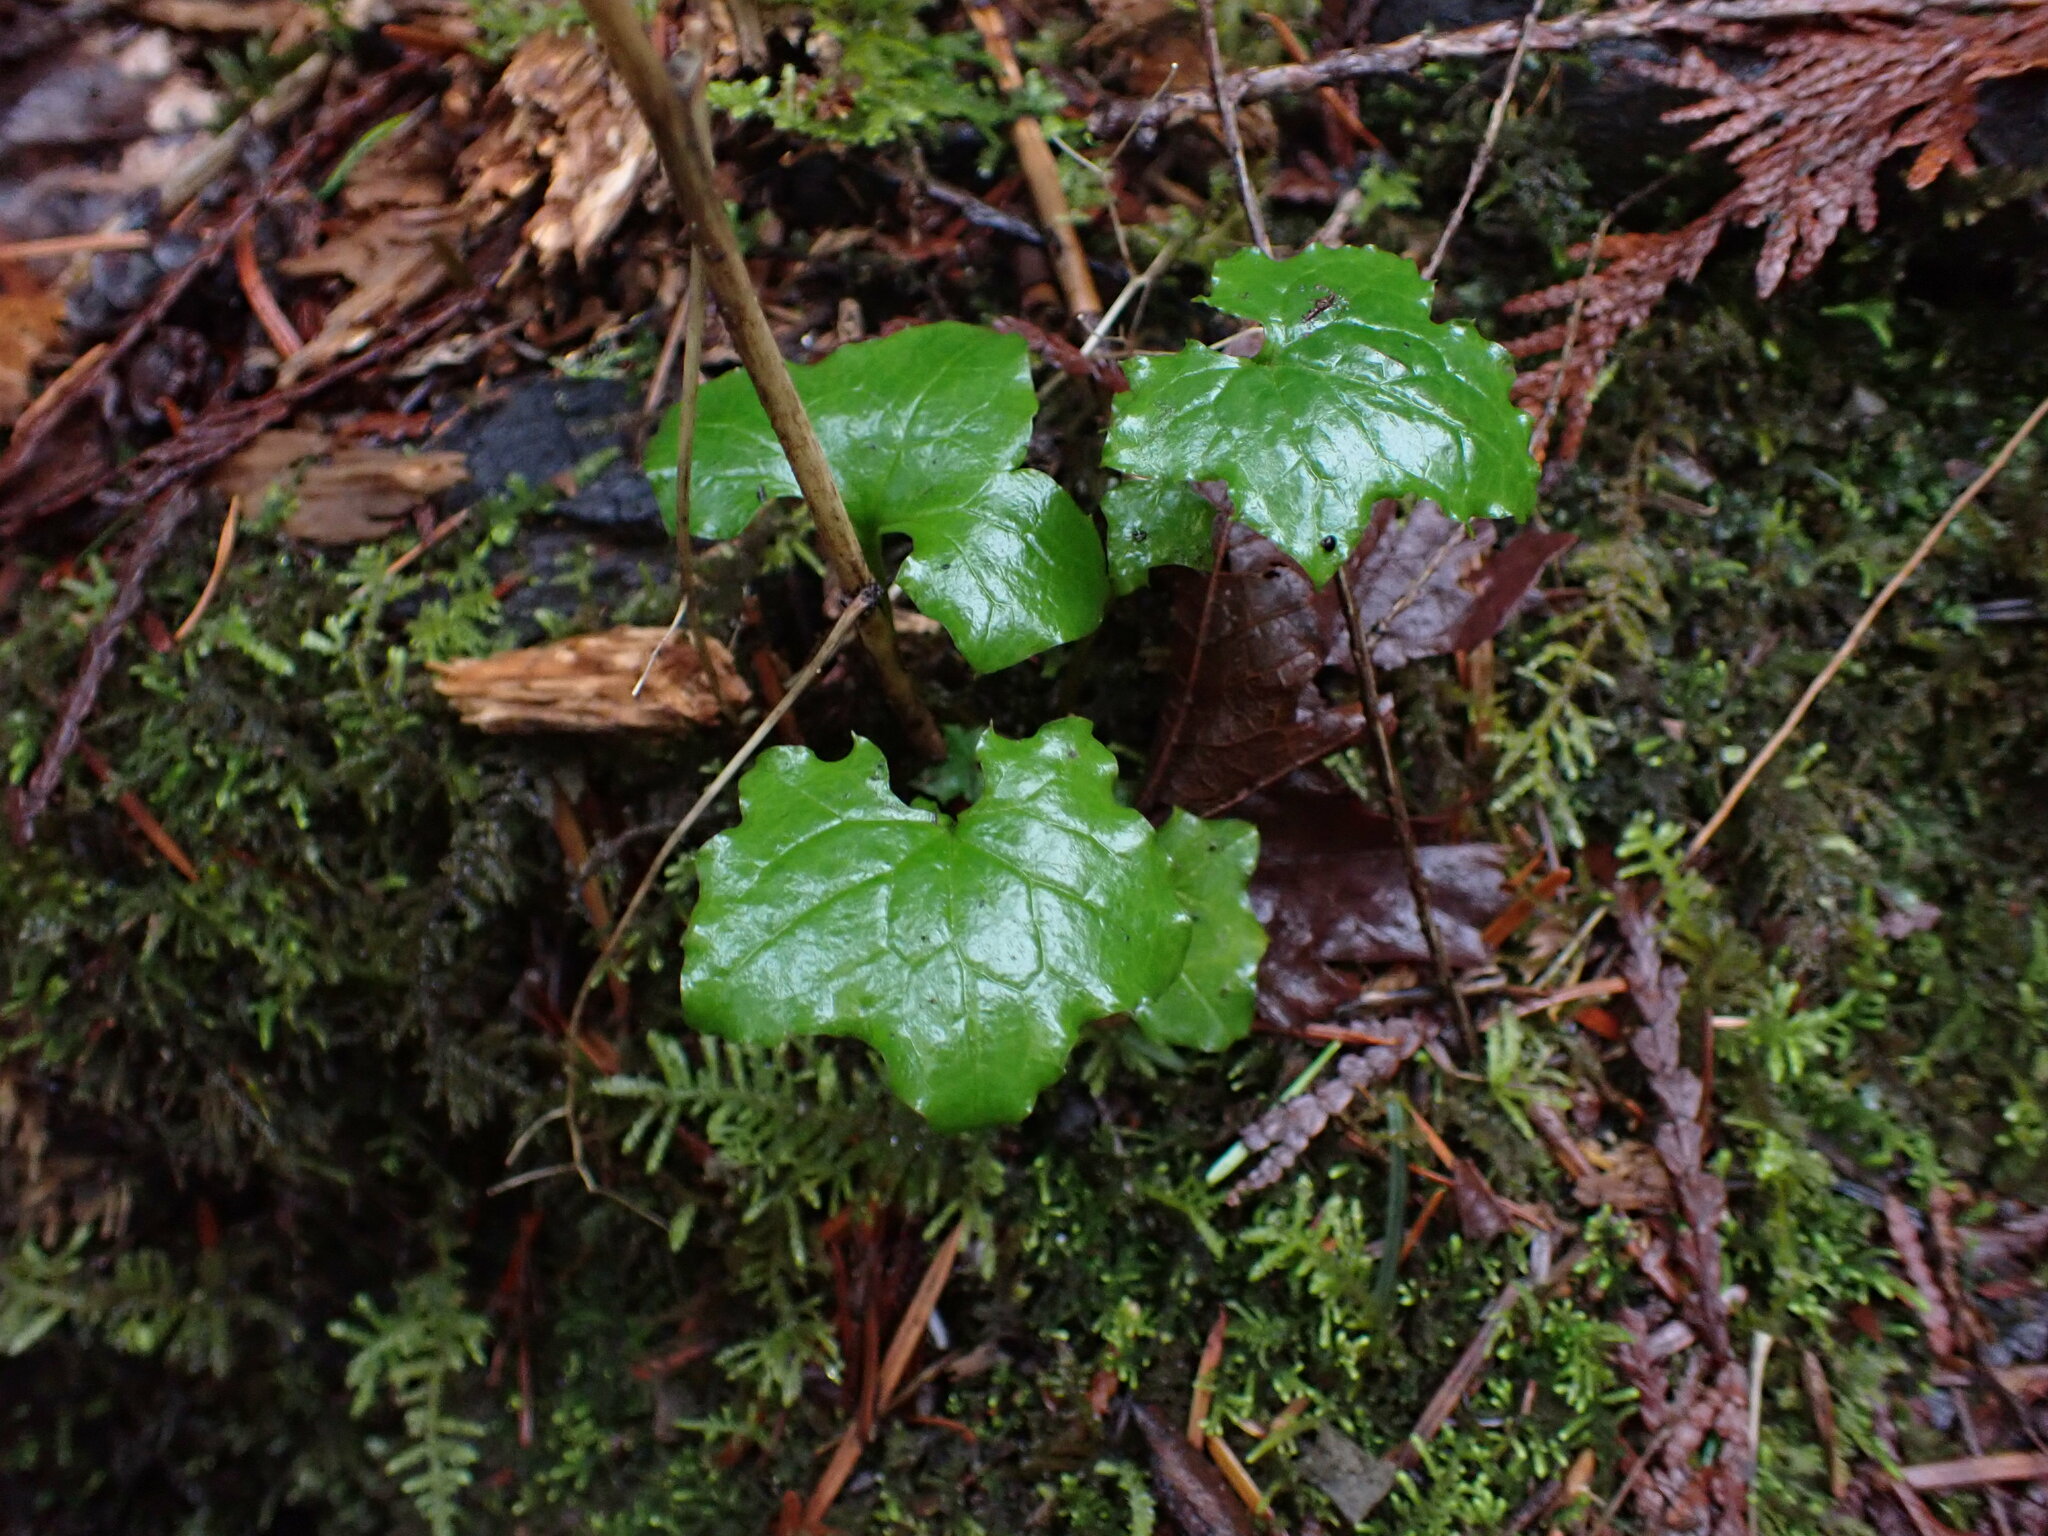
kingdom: Plantae
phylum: Tracheophyta
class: Magnoliopsida
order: Asterales
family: Asteraceae
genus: Mycelis
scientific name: Mycelis muralis
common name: Wall lettuce
